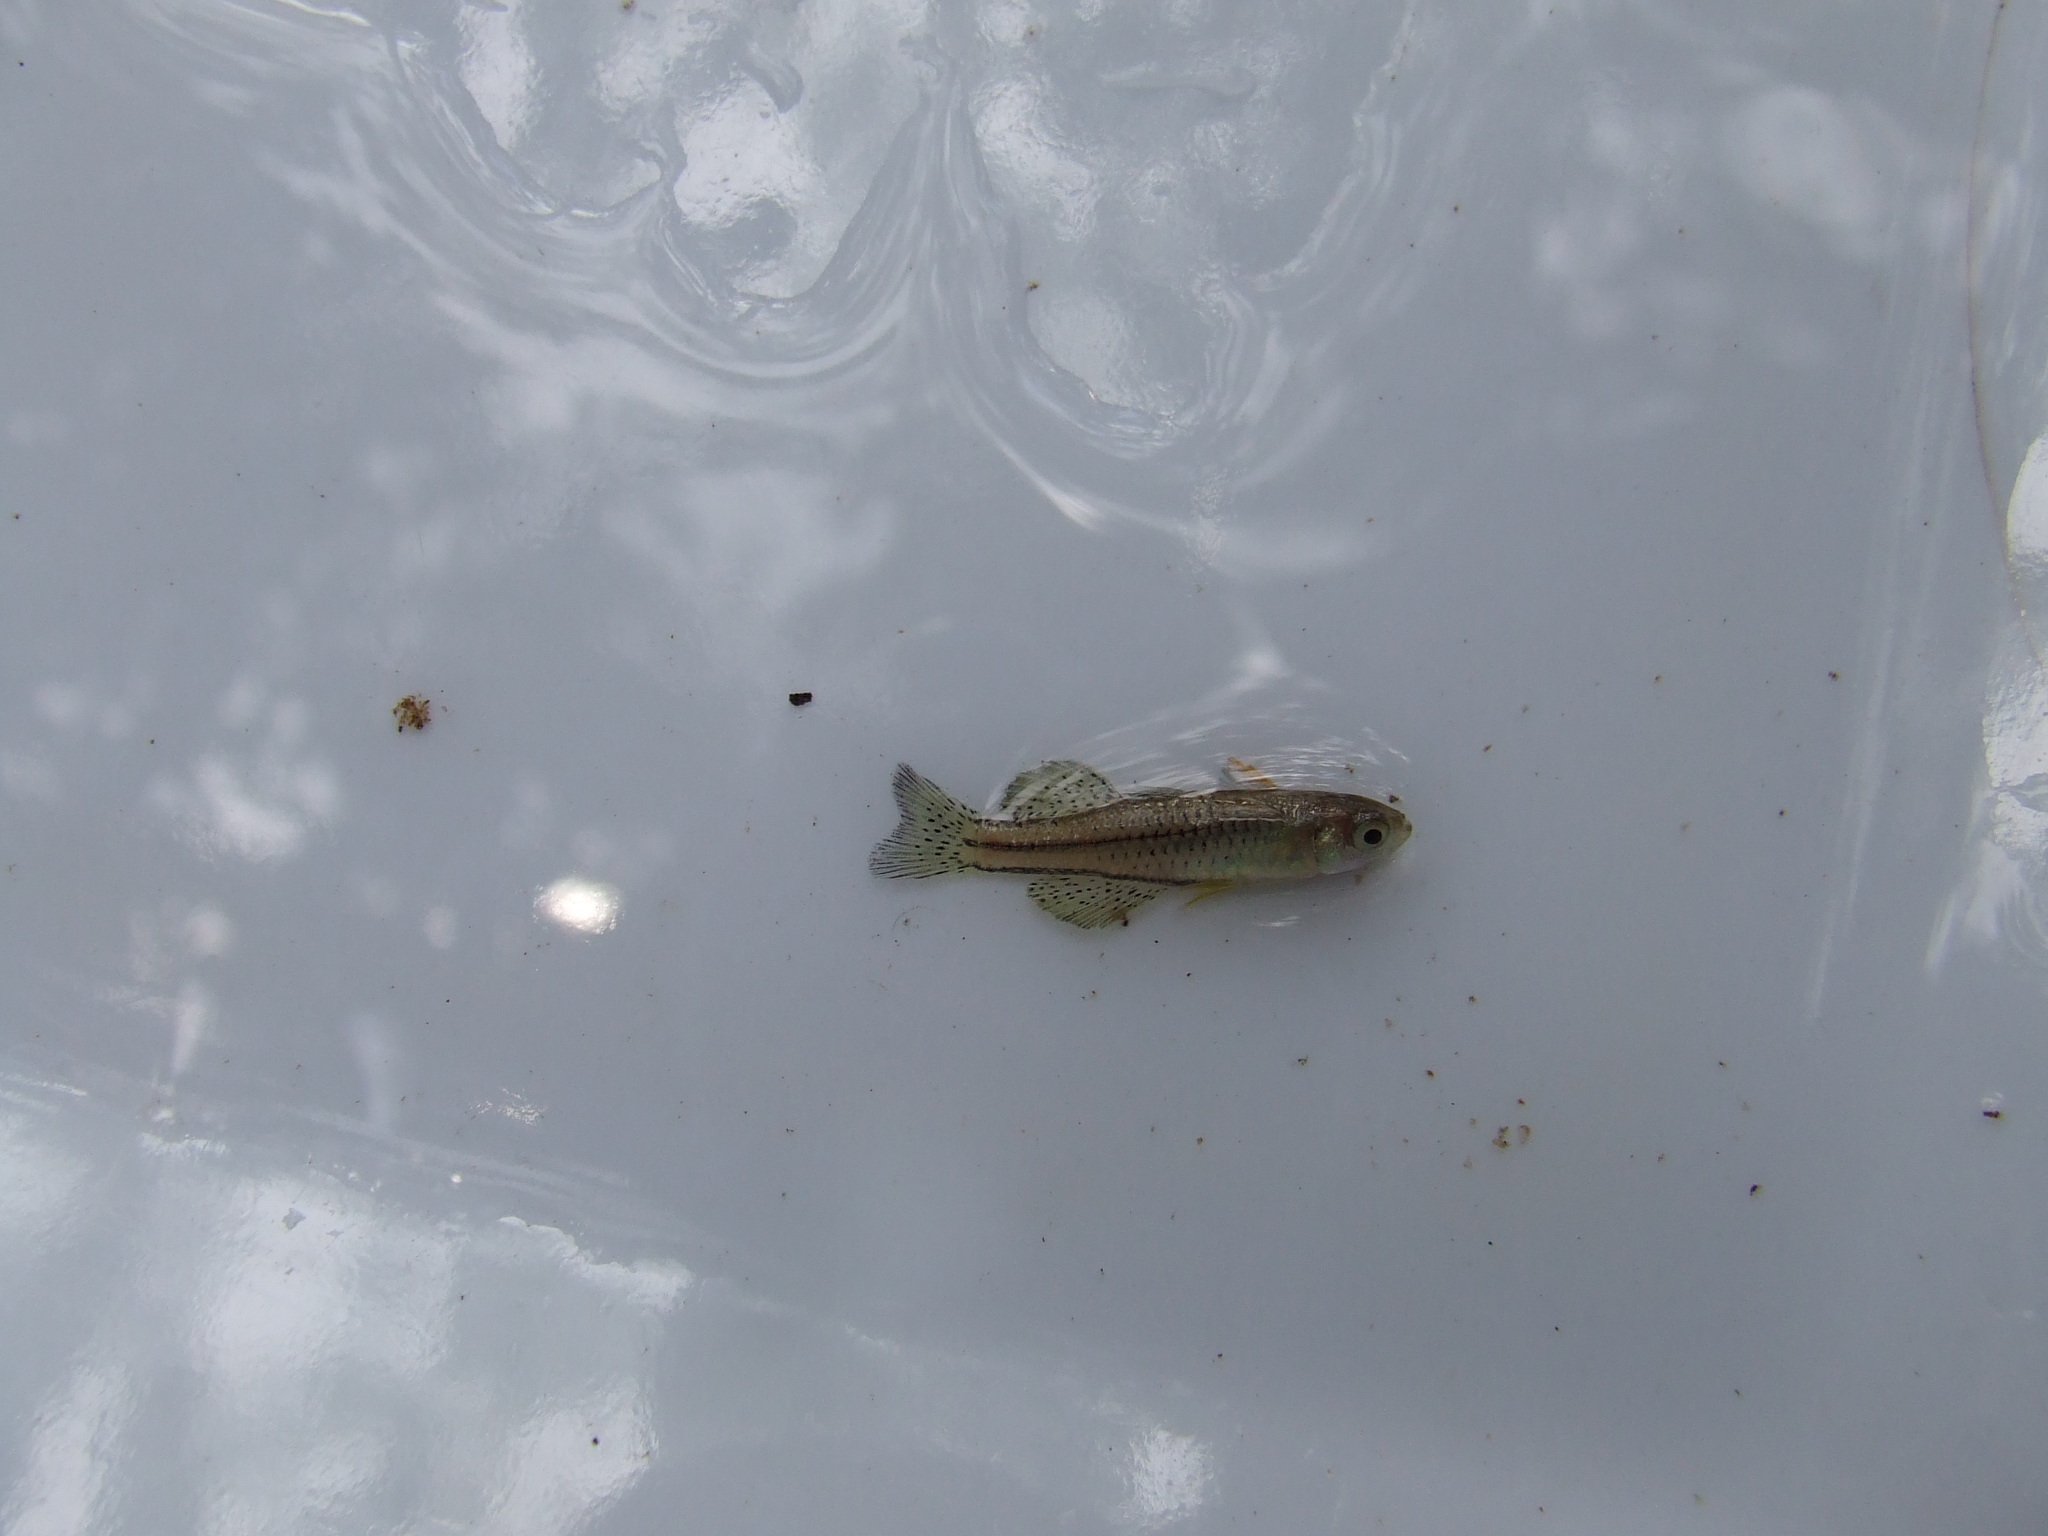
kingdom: Animalia
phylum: Chordata
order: Atheriniformes
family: Pseudomugilidae
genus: Pseudomugil
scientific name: Pseudomugil gertrudae
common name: Gertrude's blue eye
